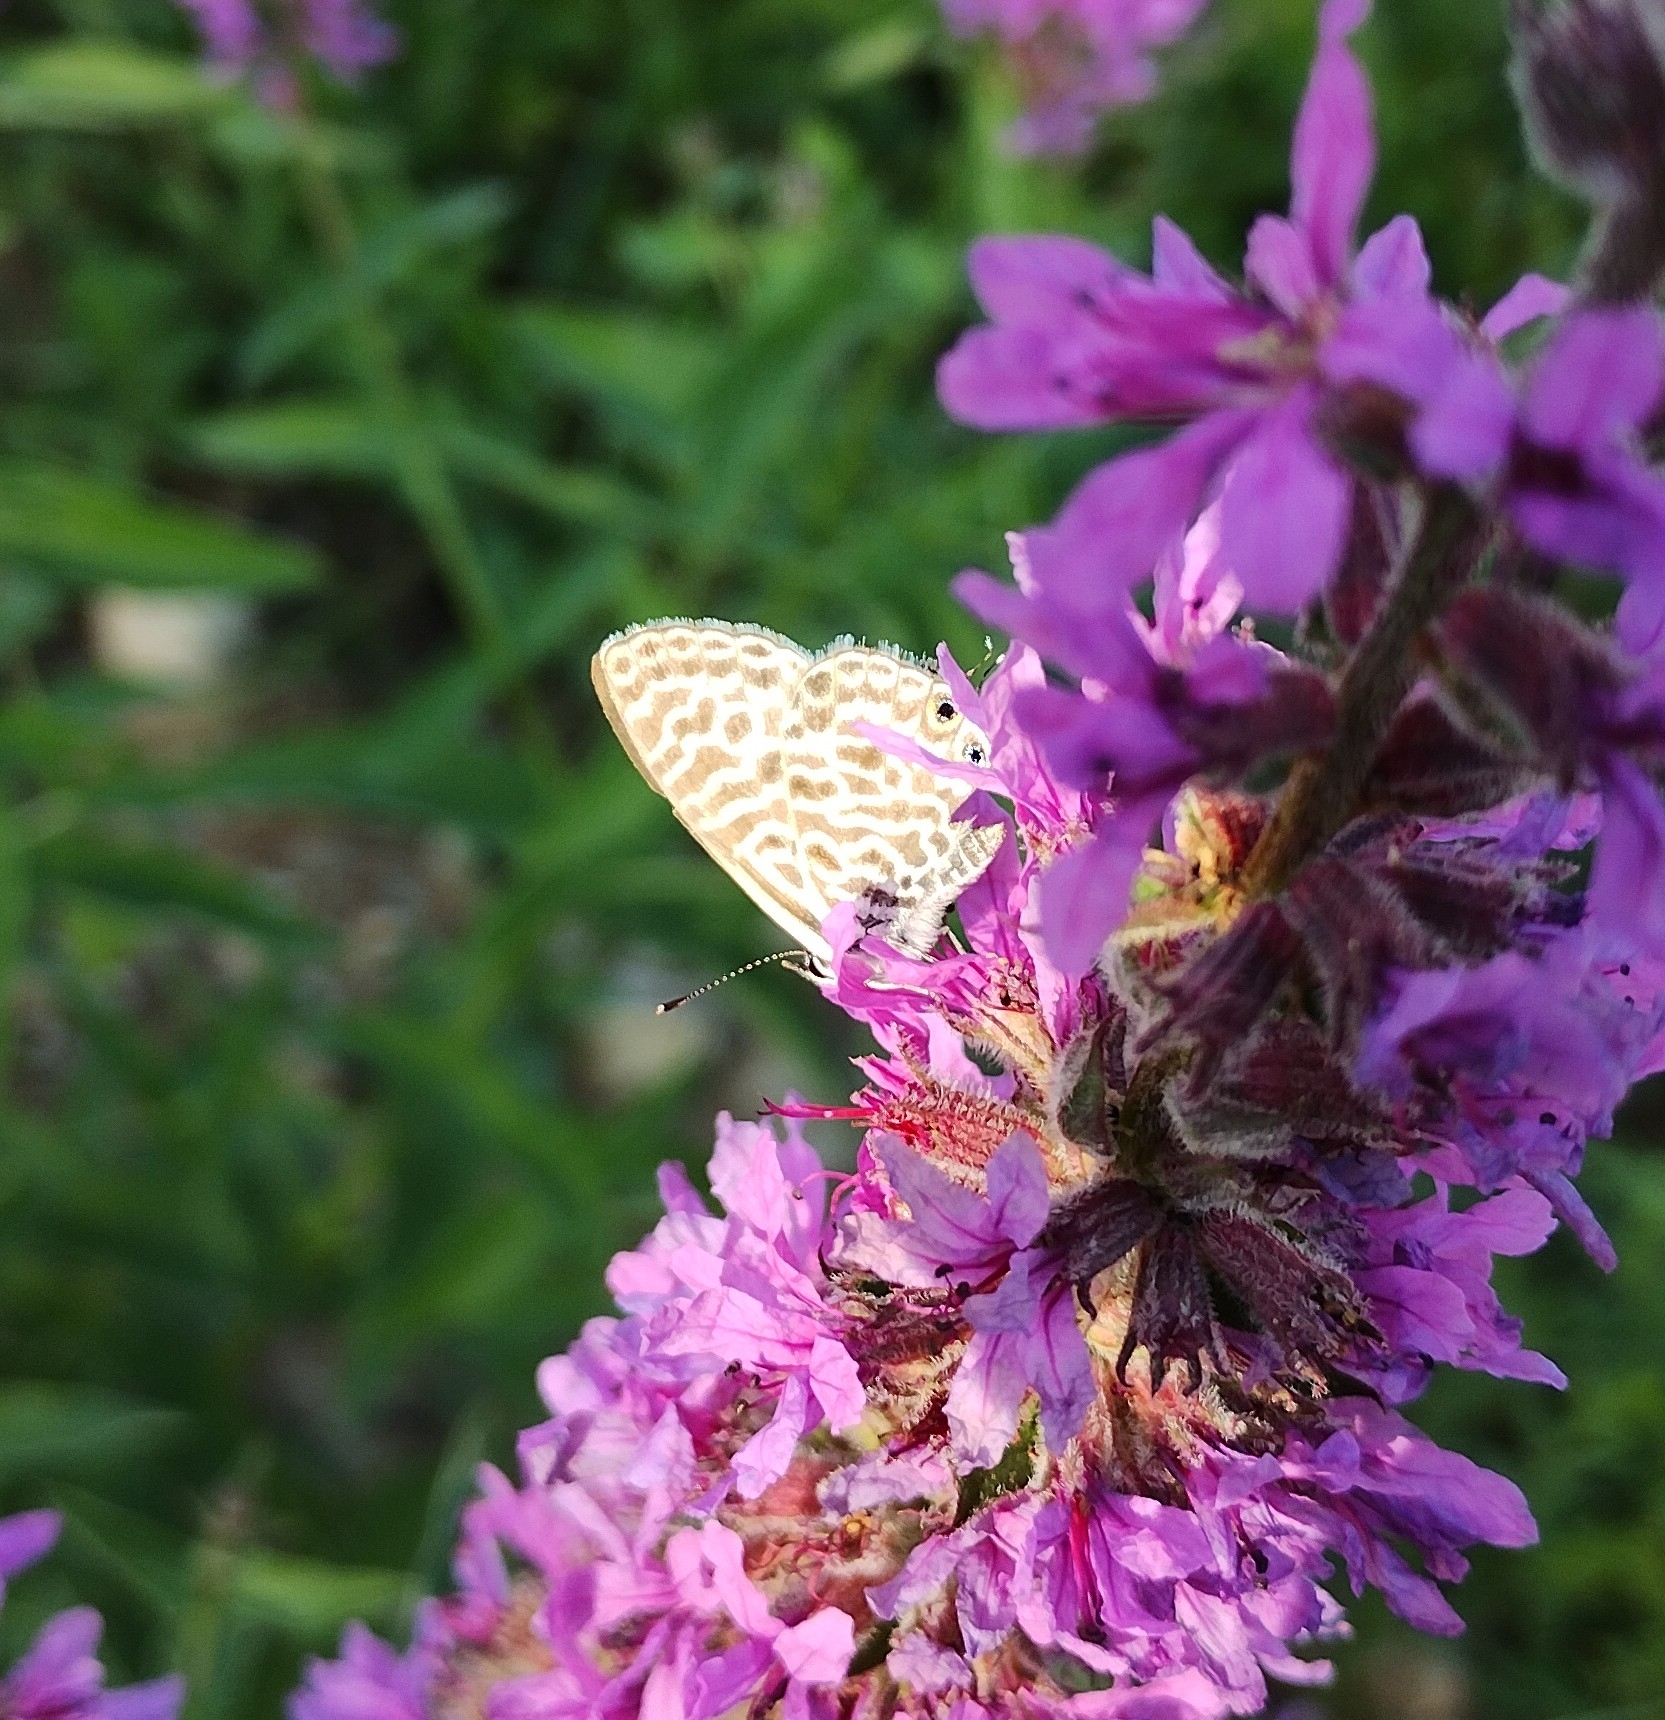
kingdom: Animalia
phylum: Arthropoda
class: Insecta
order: Lepidoptera
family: Lycaenidae
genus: Leptotes
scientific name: Leptotes pirithous
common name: Lang's short-tailed blue
